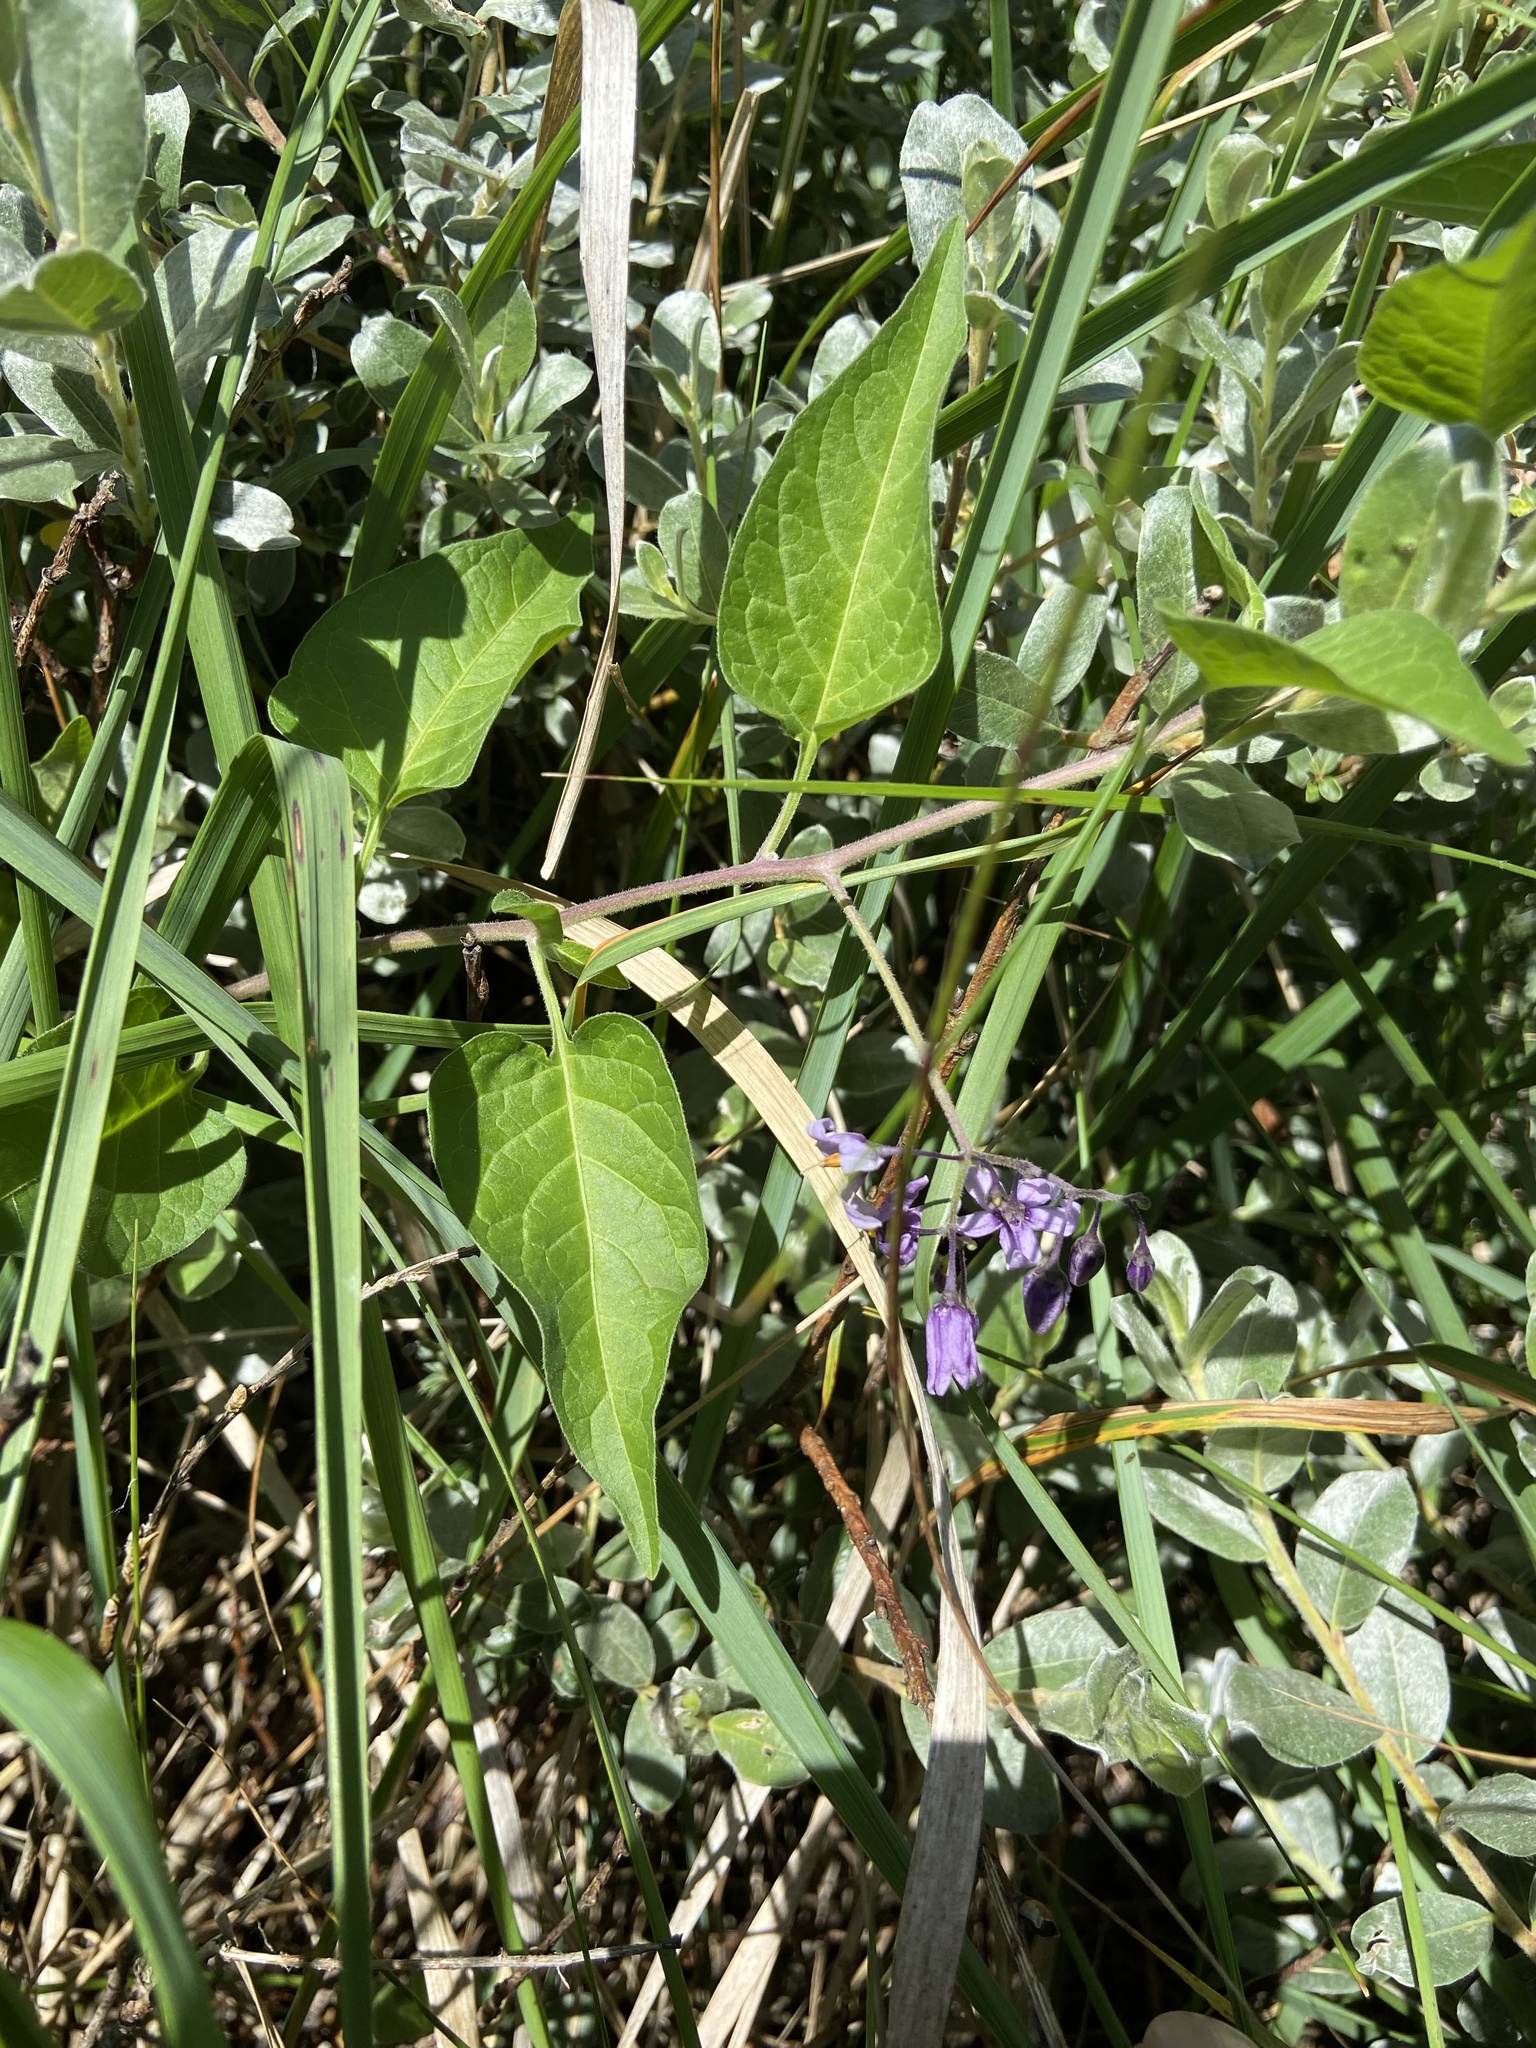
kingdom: Plantae
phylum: Tracheophyta
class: Magnoliopsida
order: Solanales
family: Solanaceae
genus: Solanum
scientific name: Solanum dulcamara
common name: Climbing nightshade
